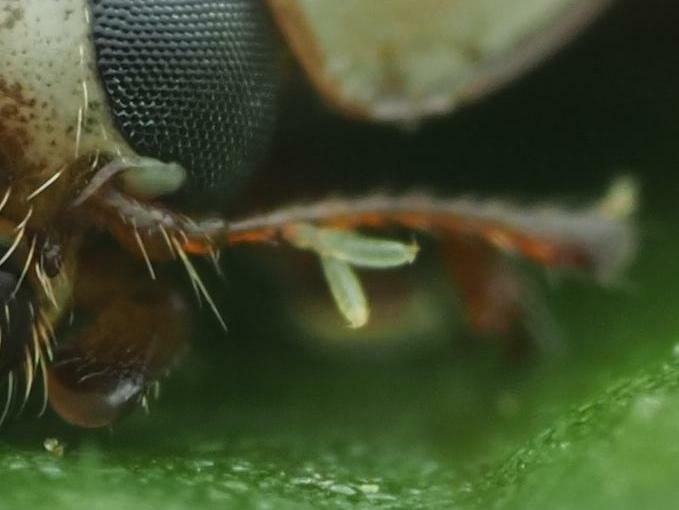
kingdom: Fungi
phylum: Ascomycota
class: Laboulbeniomycetes
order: Laboulbeniales
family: Laboulbeniaceae
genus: Hesperomyces
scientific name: Hesperomyces harmoniae
